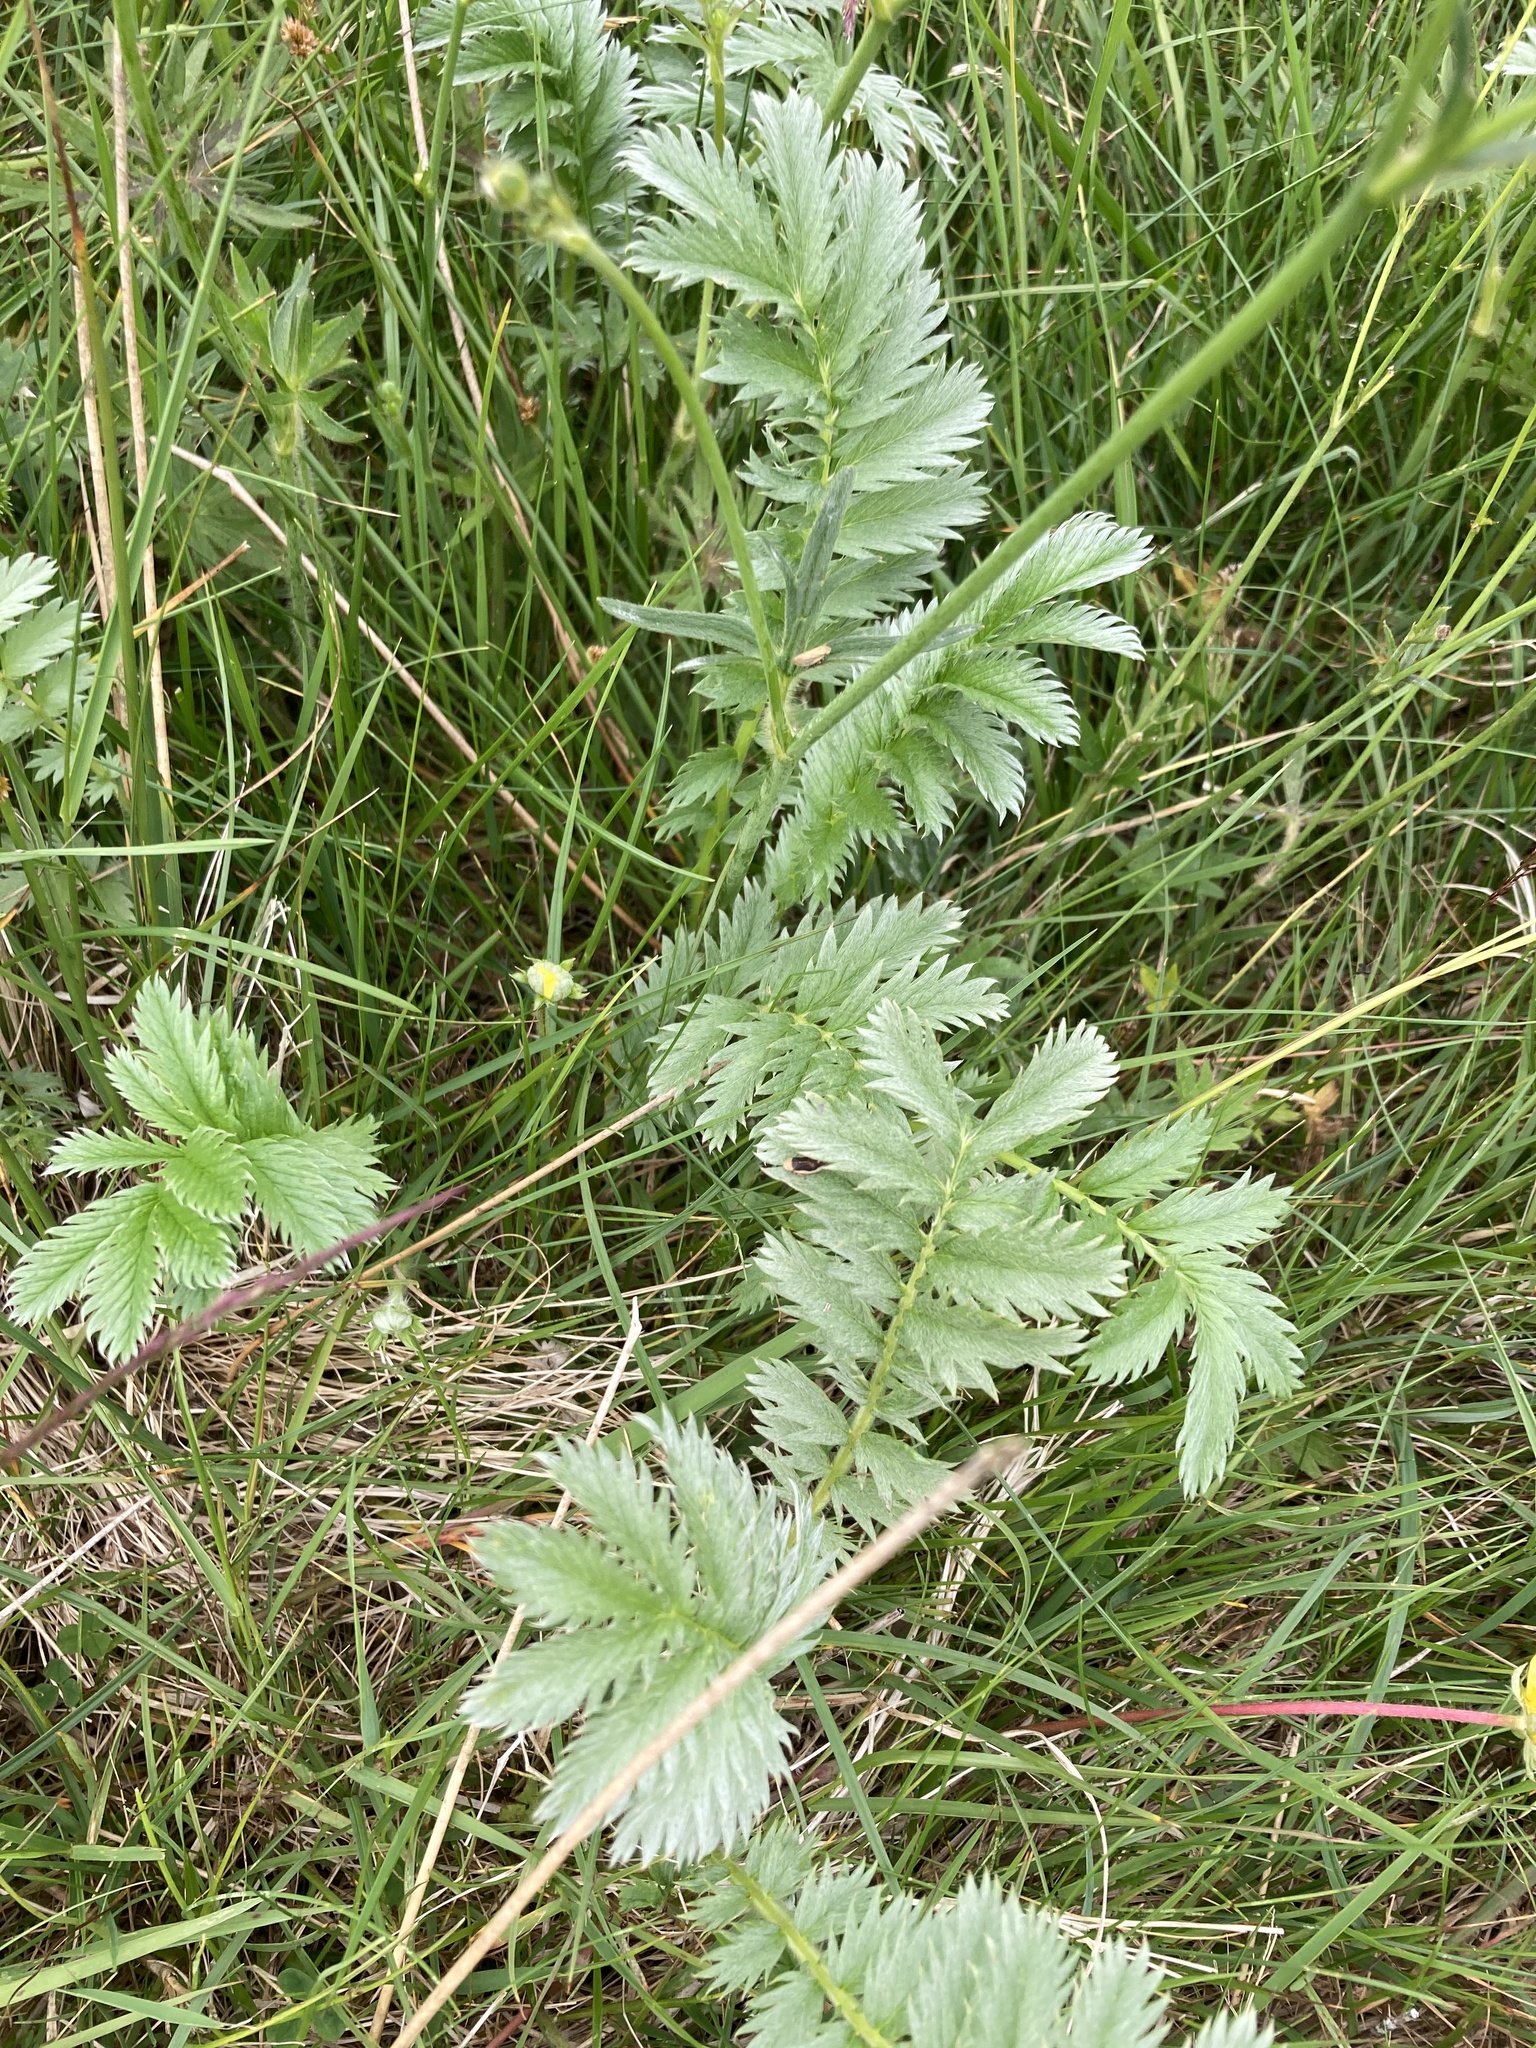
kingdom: Plantae
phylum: Tracheophyta
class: Magnoliopsida
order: Rosales
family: Rosaceae
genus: Argentina
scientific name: Argentina anserina
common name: Common silverweed
